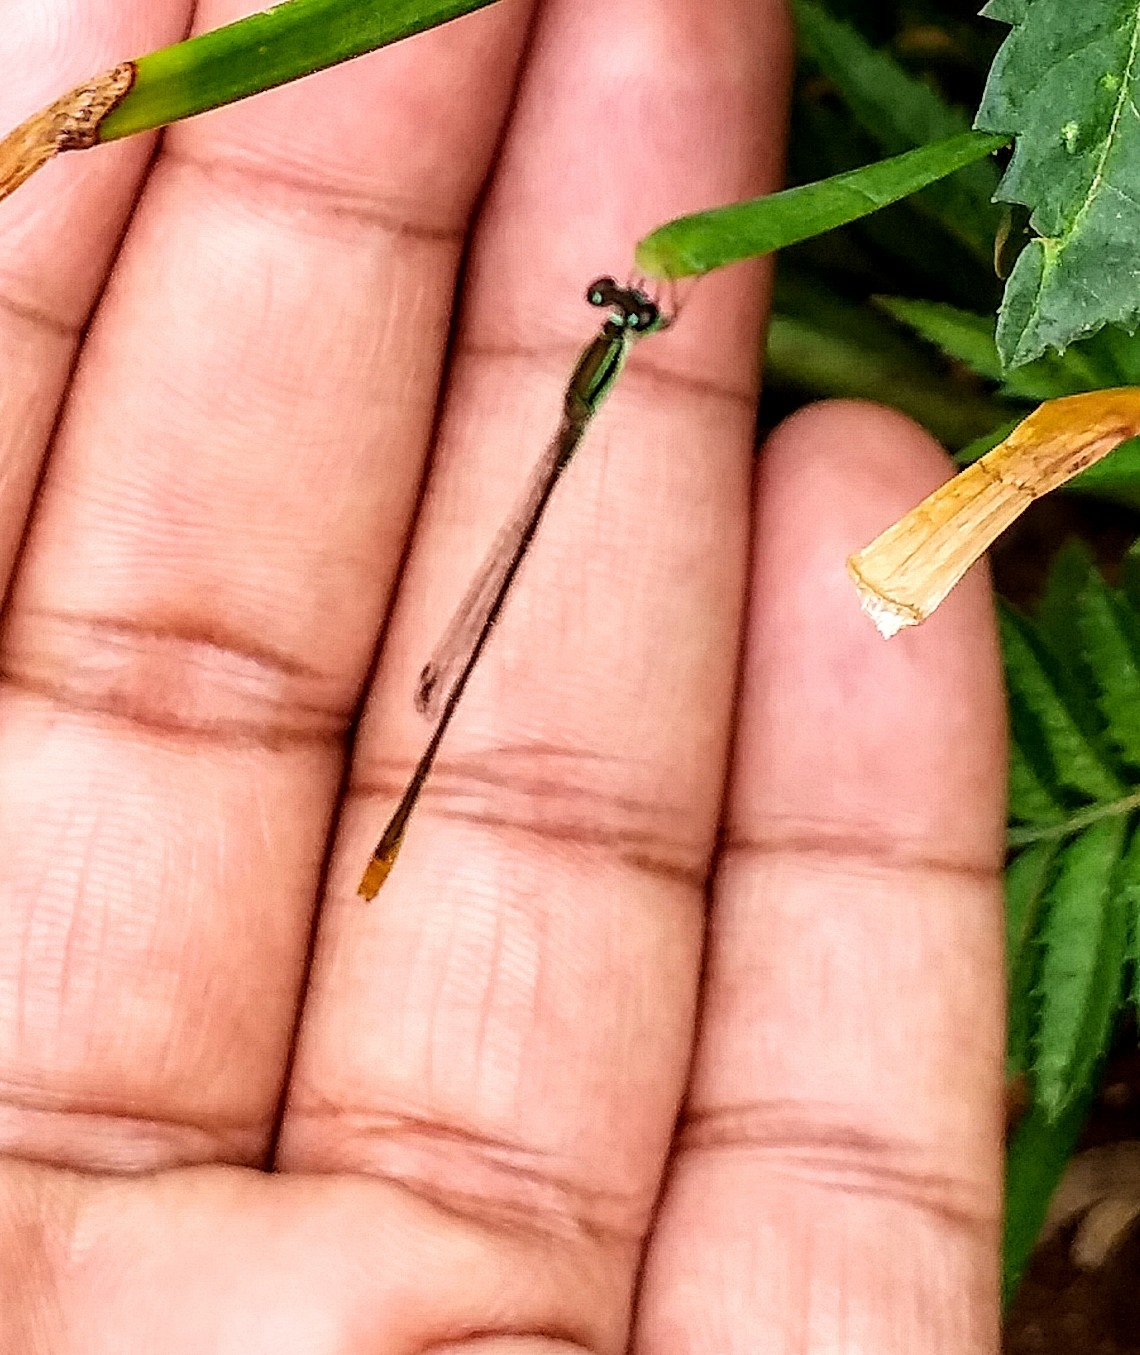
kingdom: Animalia
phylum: Arthropoda
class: Insecta
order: Odonata
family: Coenagrionidae
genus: Agriocnemis
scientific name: Agriocnemis pygmaea
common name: Pygmy wisp
